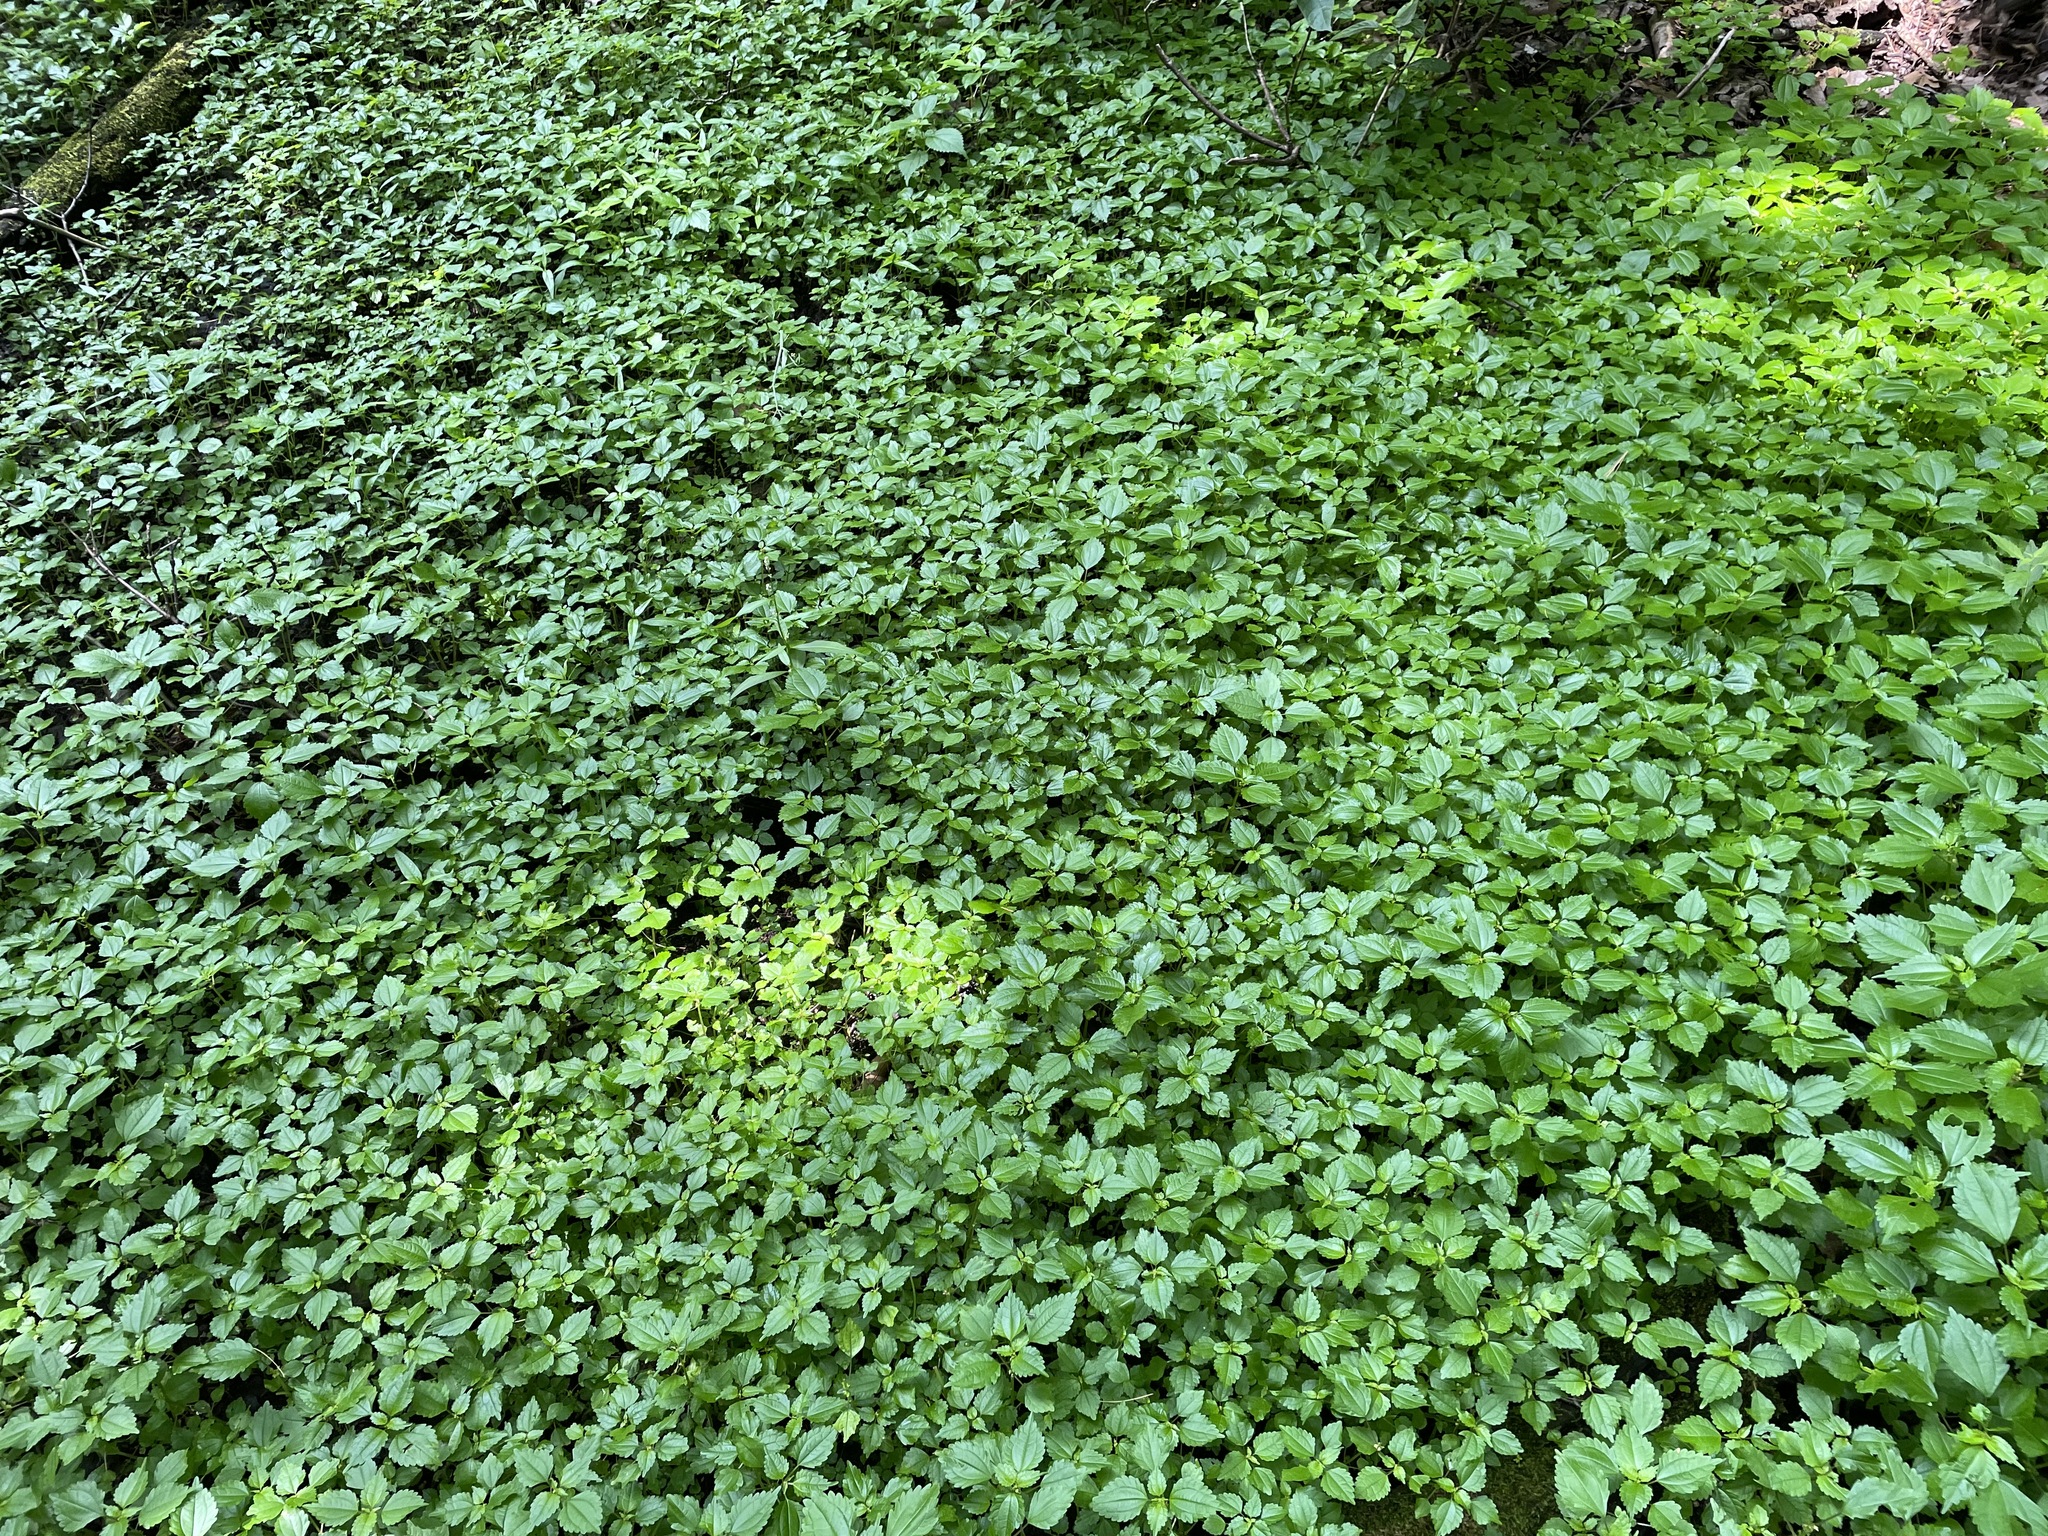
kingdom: Plantae
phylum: Tracheophyta
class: Magnoliopsida
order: Rosales
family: Urticaceae
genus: Pilea
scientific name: Pilea pumila
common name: Clearweed
